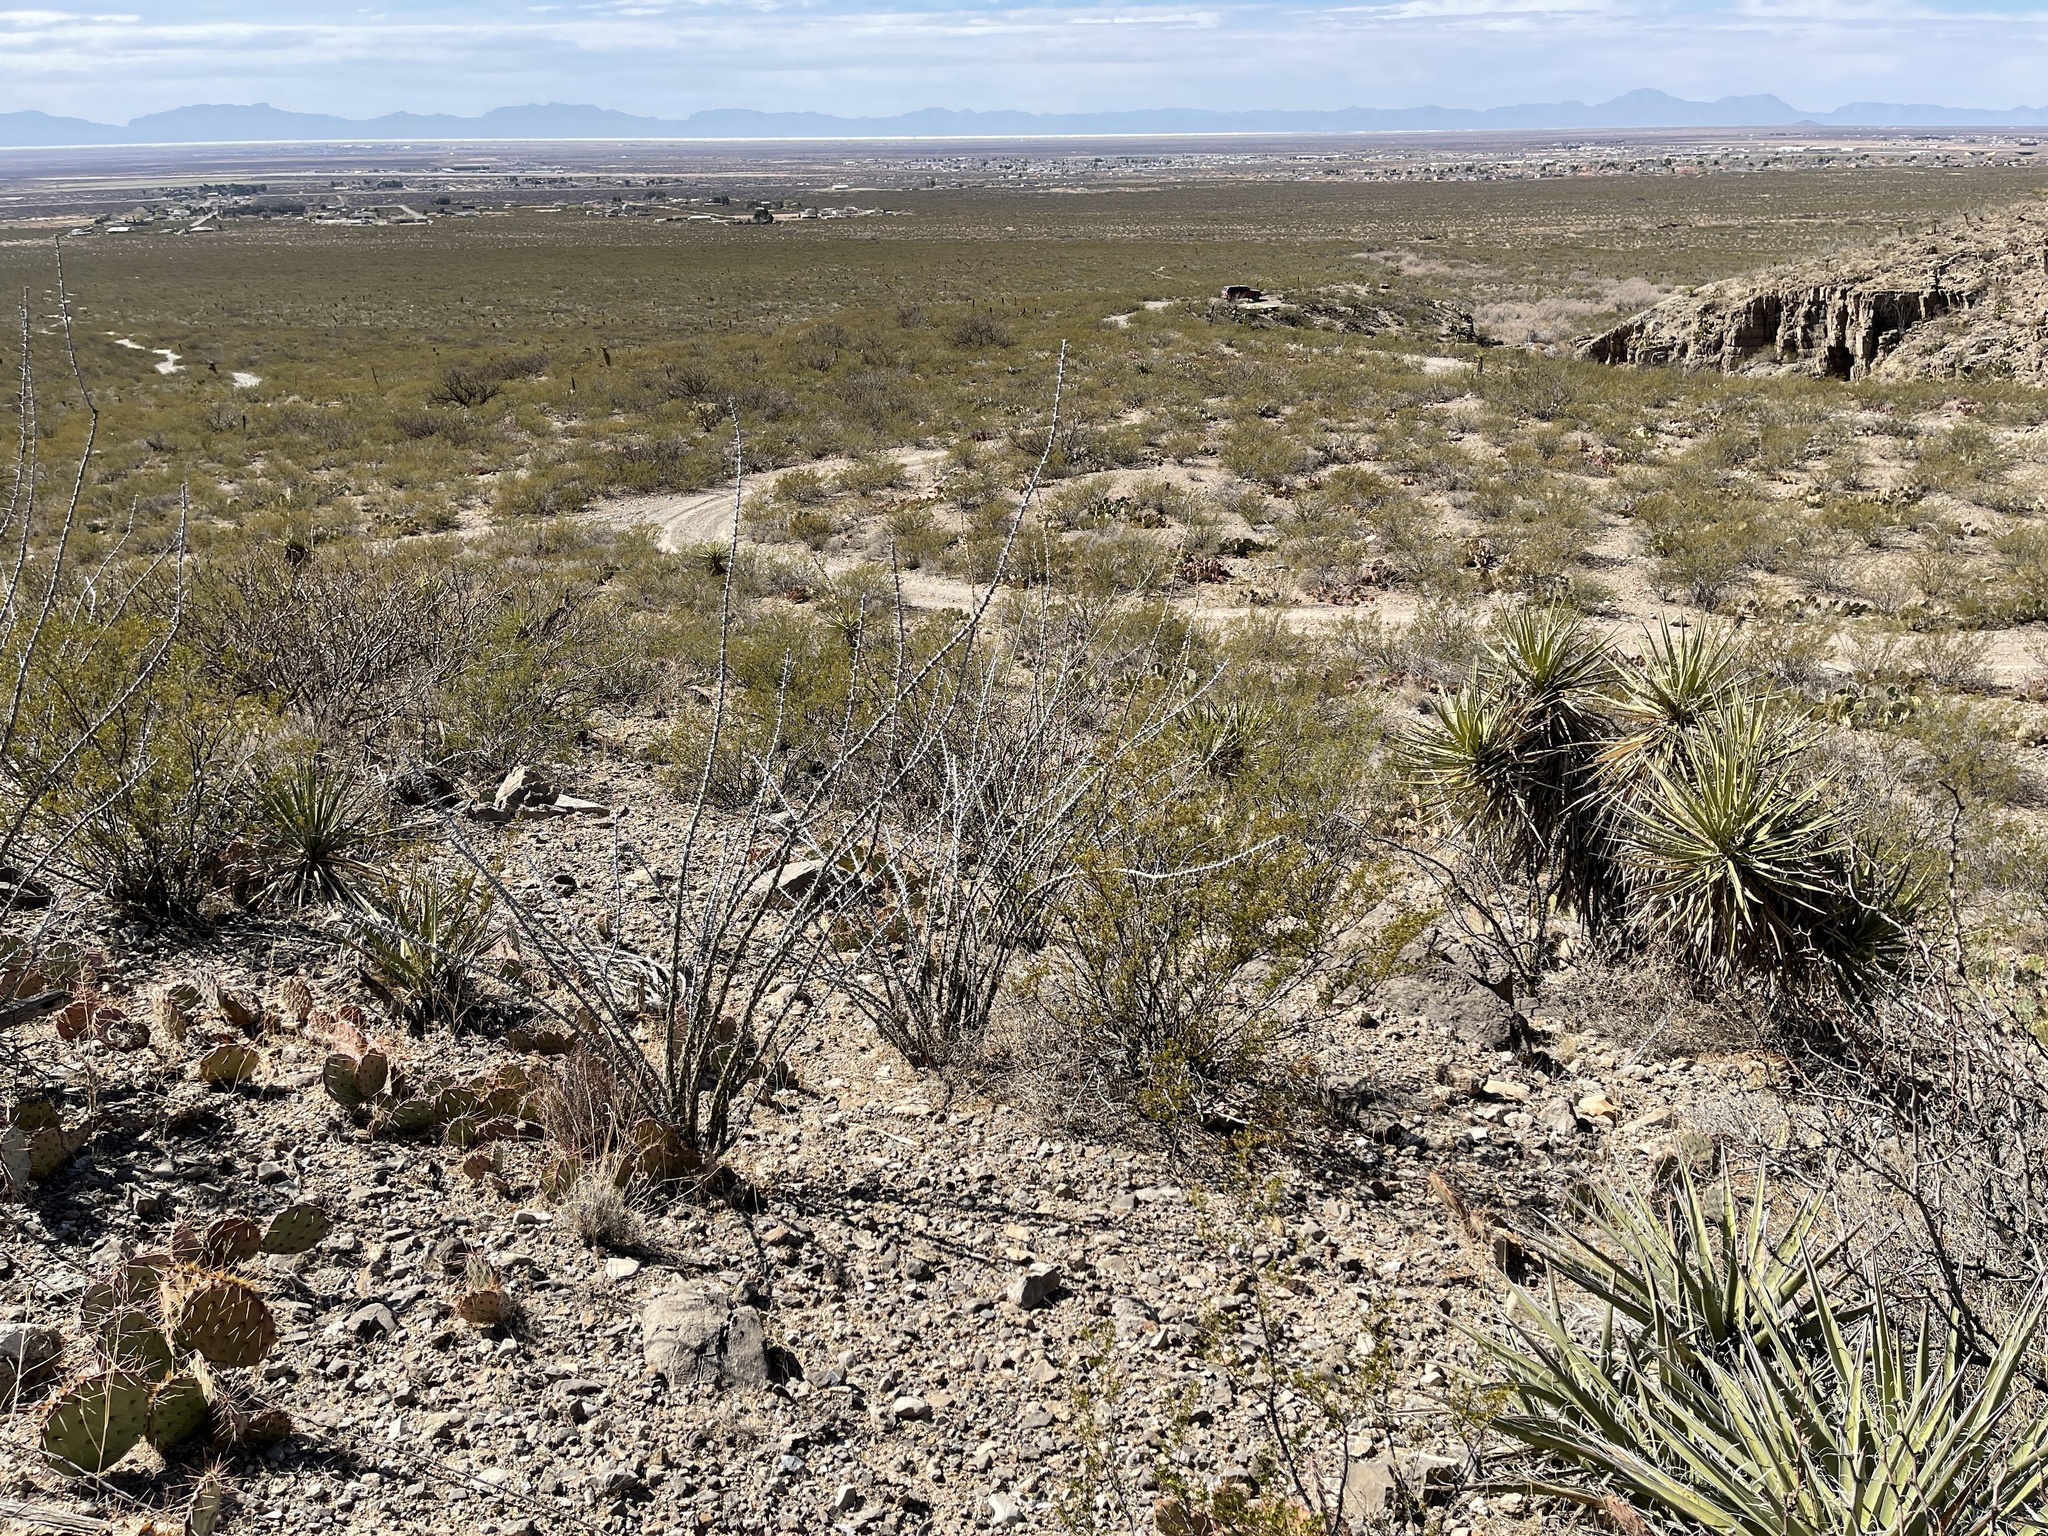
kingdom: Plantae
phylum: Tracheophyta
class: Magnoliopsida
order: Ericales
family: Fouquieriaceae
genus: Fouquieria
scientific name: Fouquieria splendens
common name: Vine-cactus
